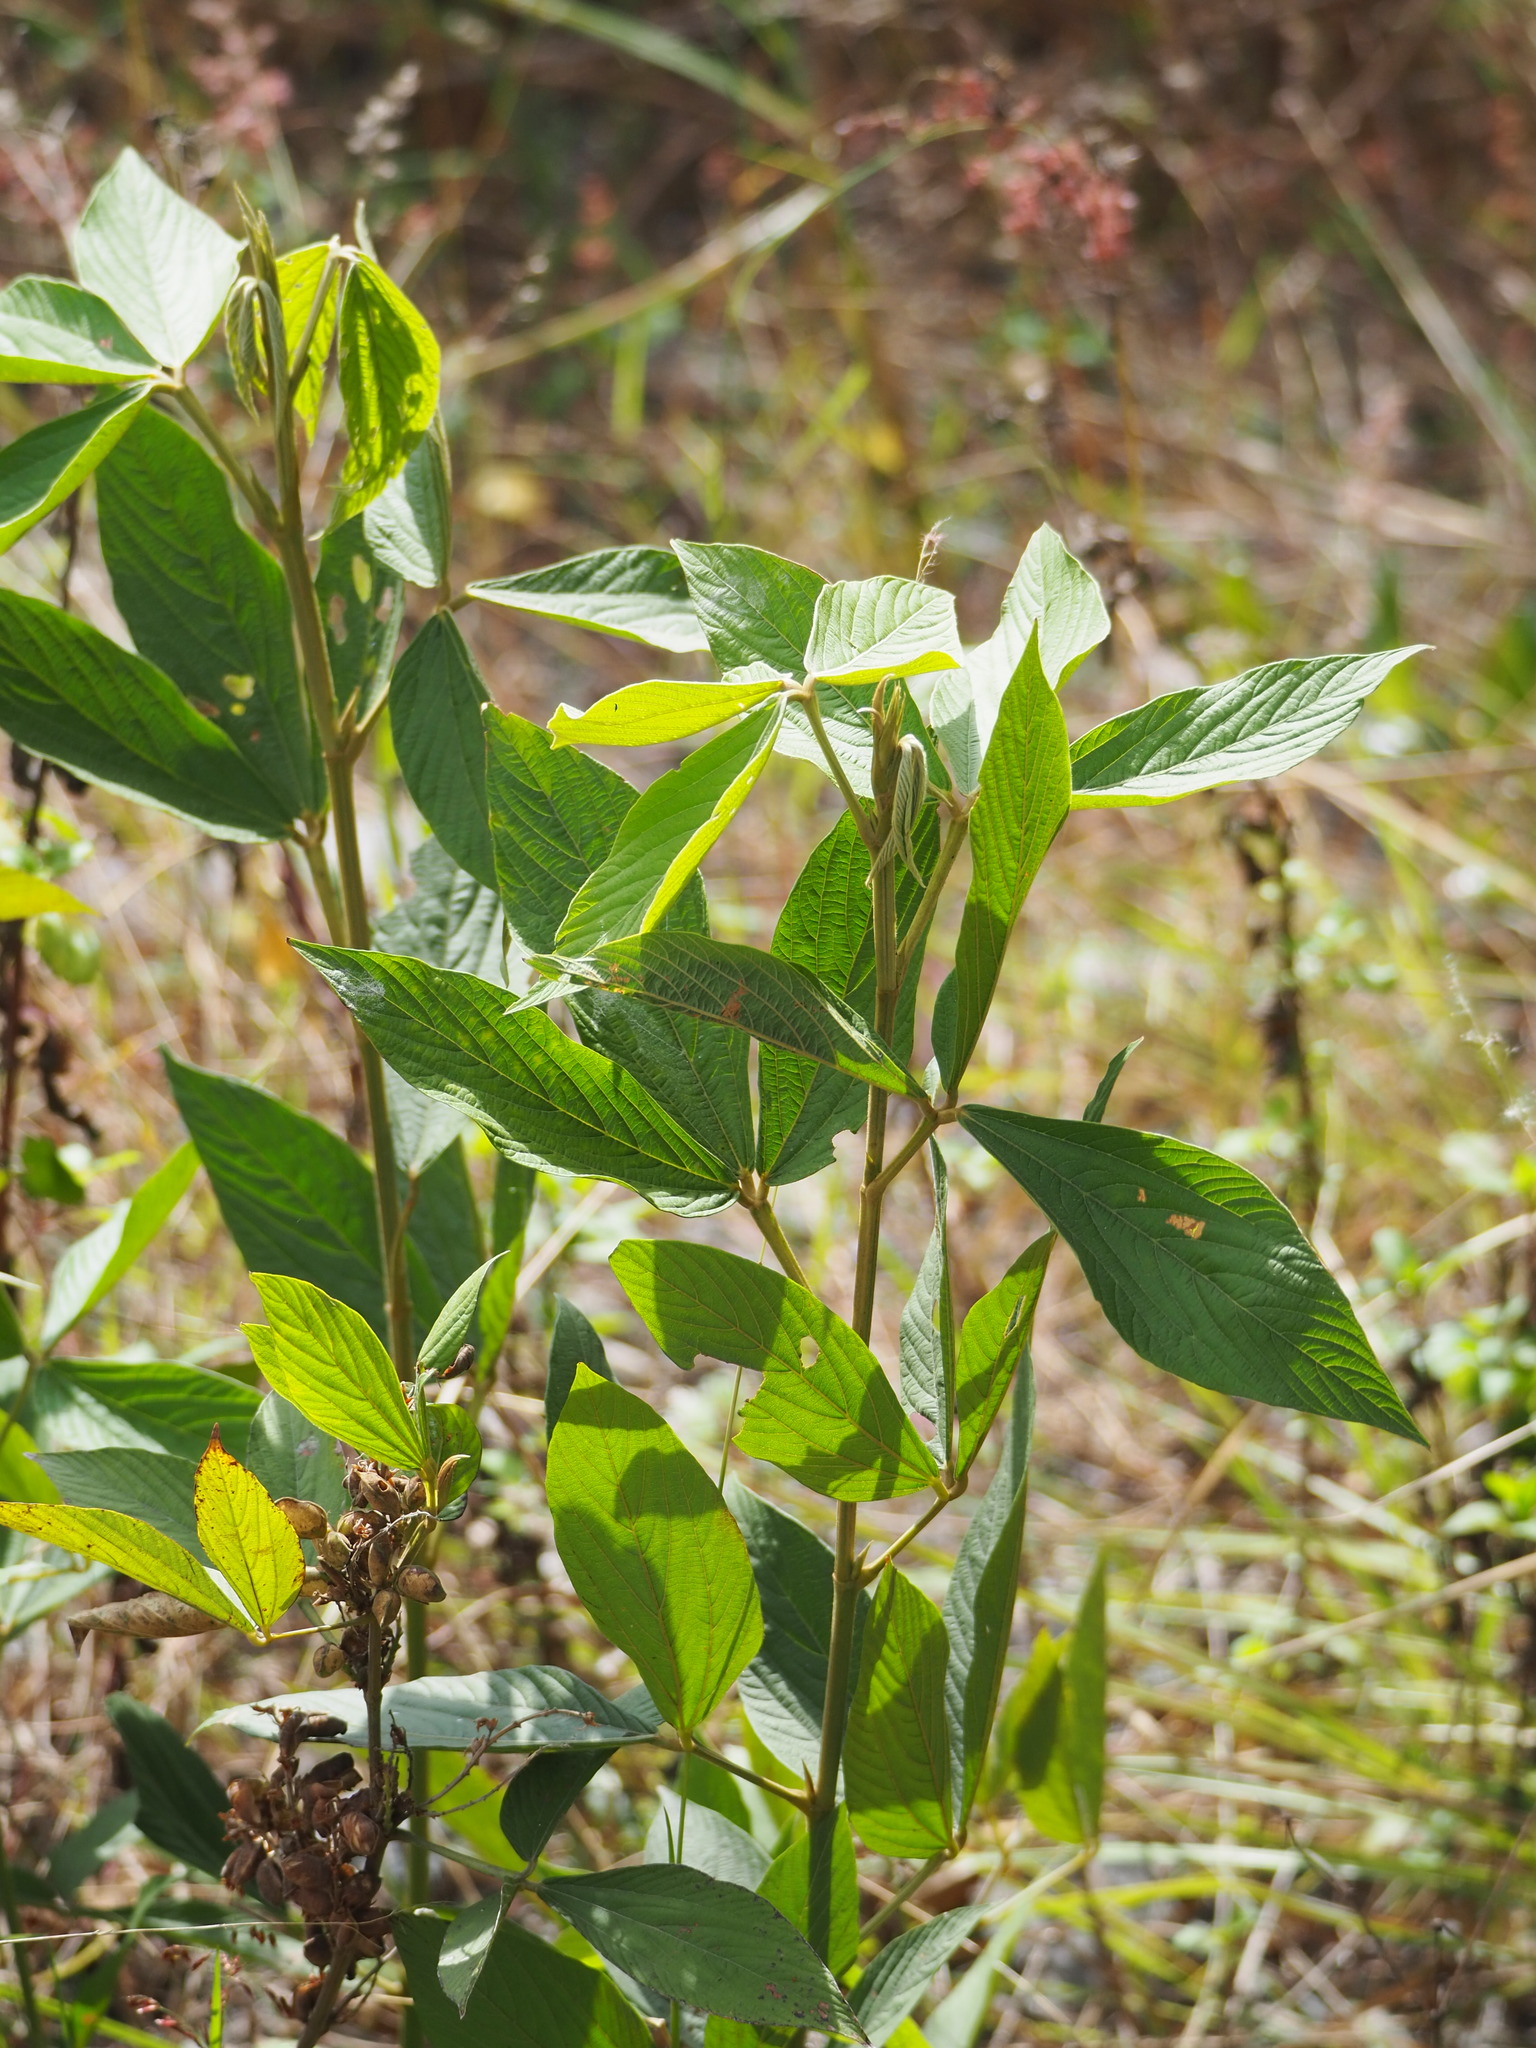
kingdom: Plantae
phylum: Tracheophyta
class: Magnoliopsida
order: Fabales
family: Fabaceae
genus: Flemingia
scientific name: Flemingia macrophylla
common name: Flemingia
